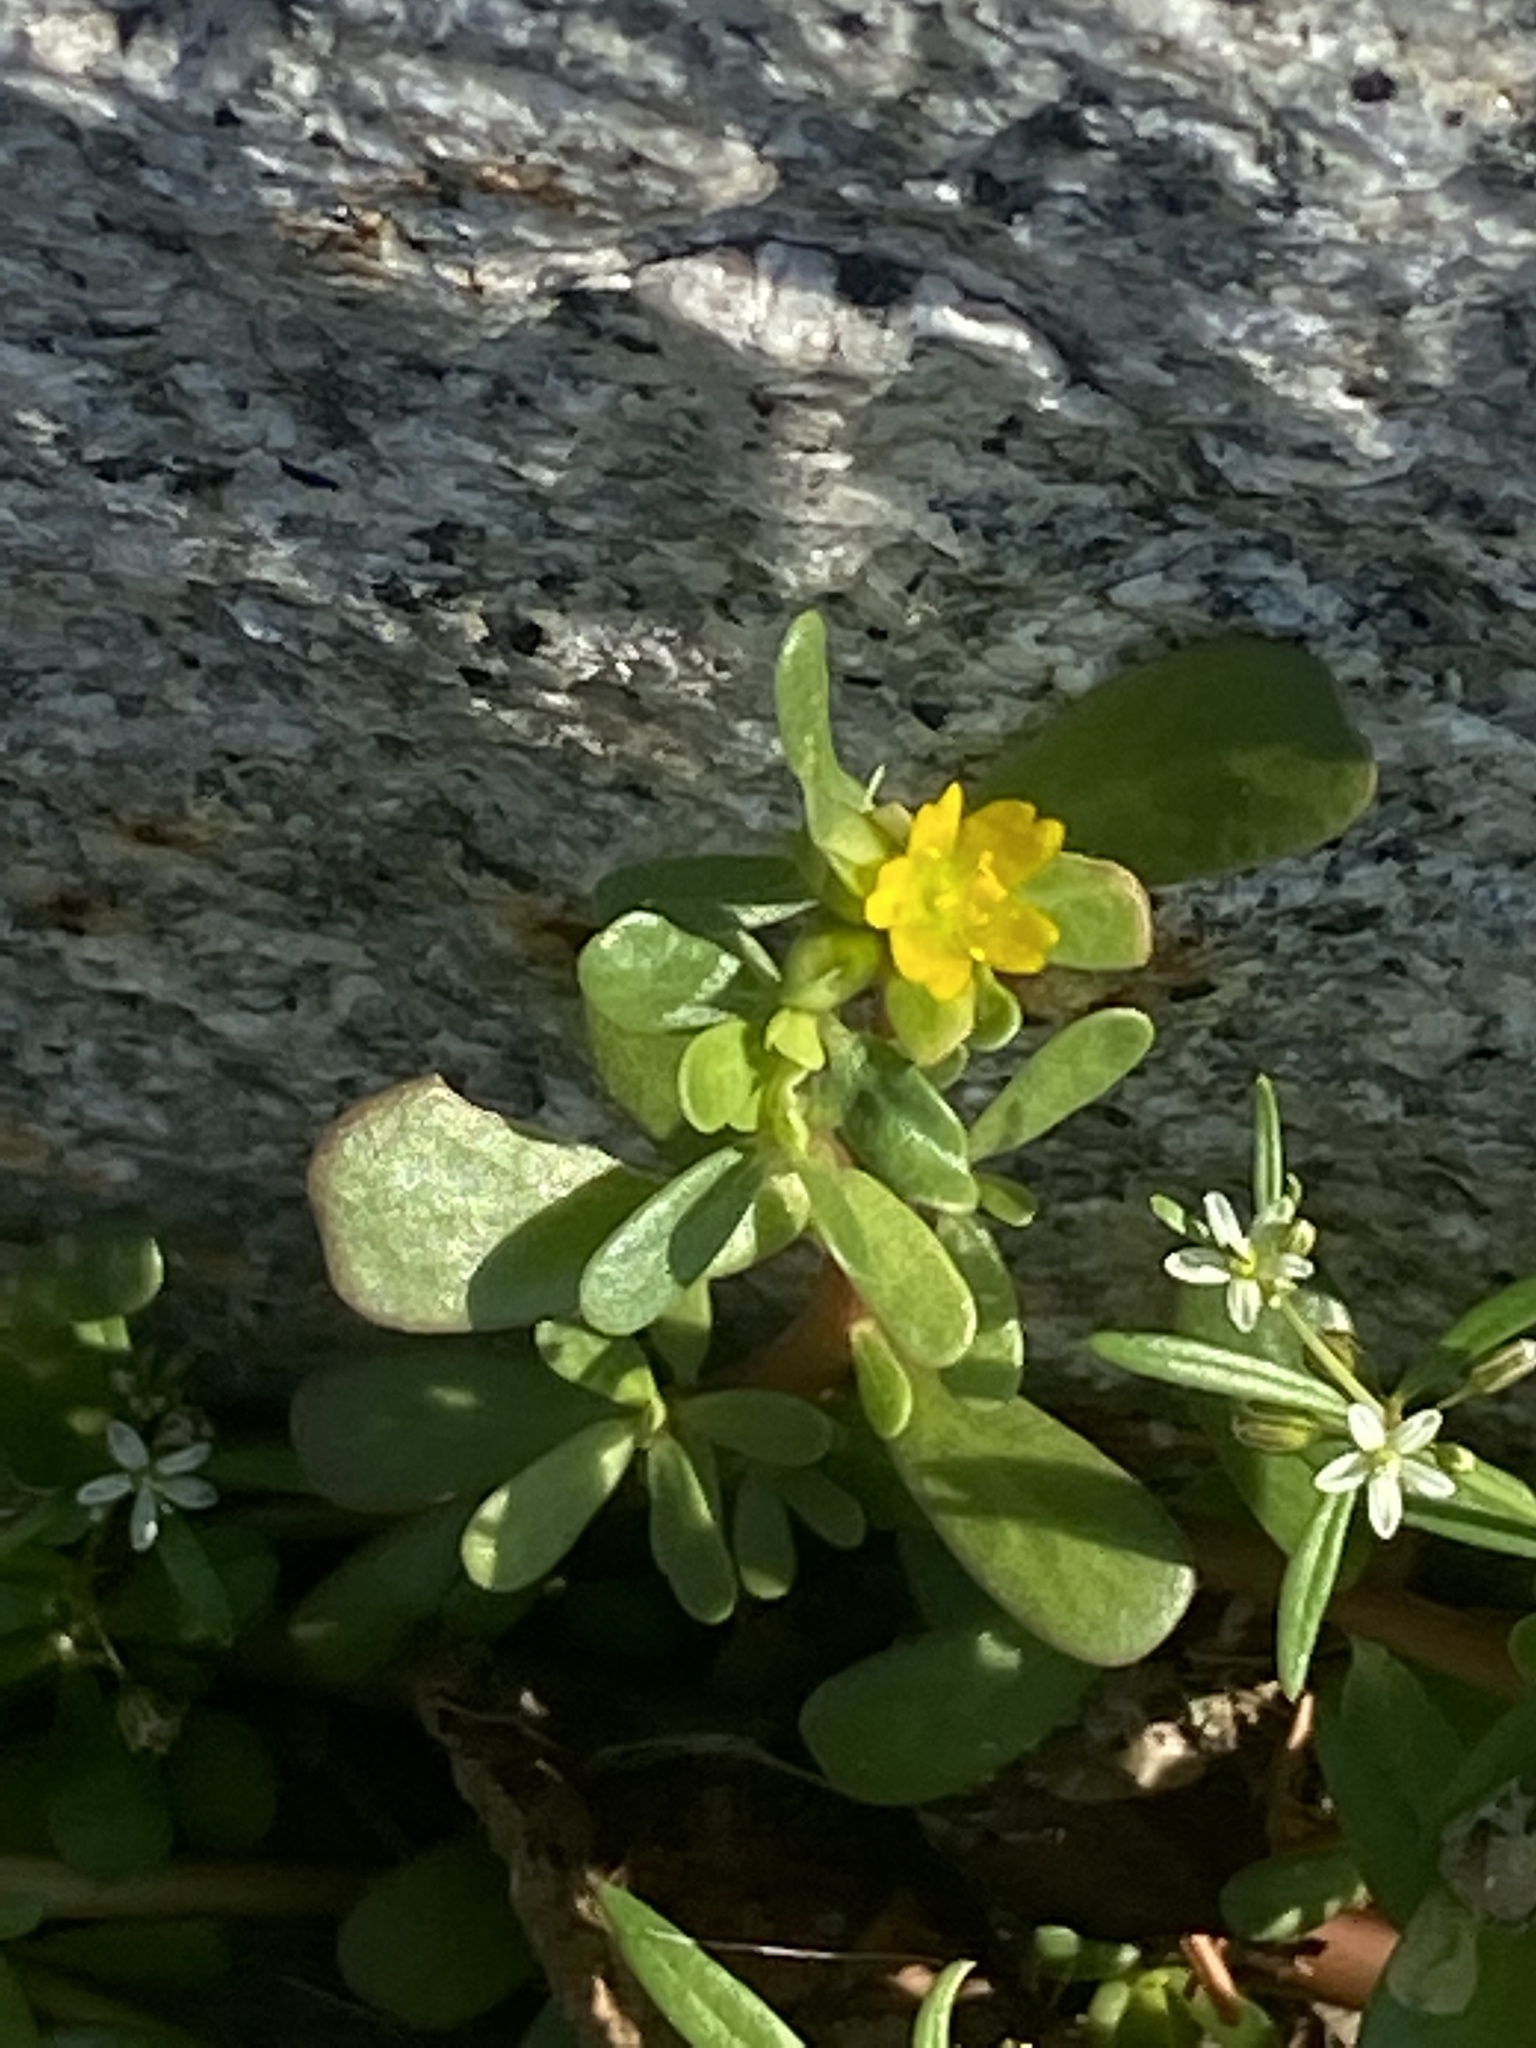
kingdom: Plantae
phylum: Tracheophyta
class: Magnoliopsida
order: Caryophyllales
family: Portulacaceae
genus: Portulaca
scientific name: Portulaca oleracea
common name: Common purslane
